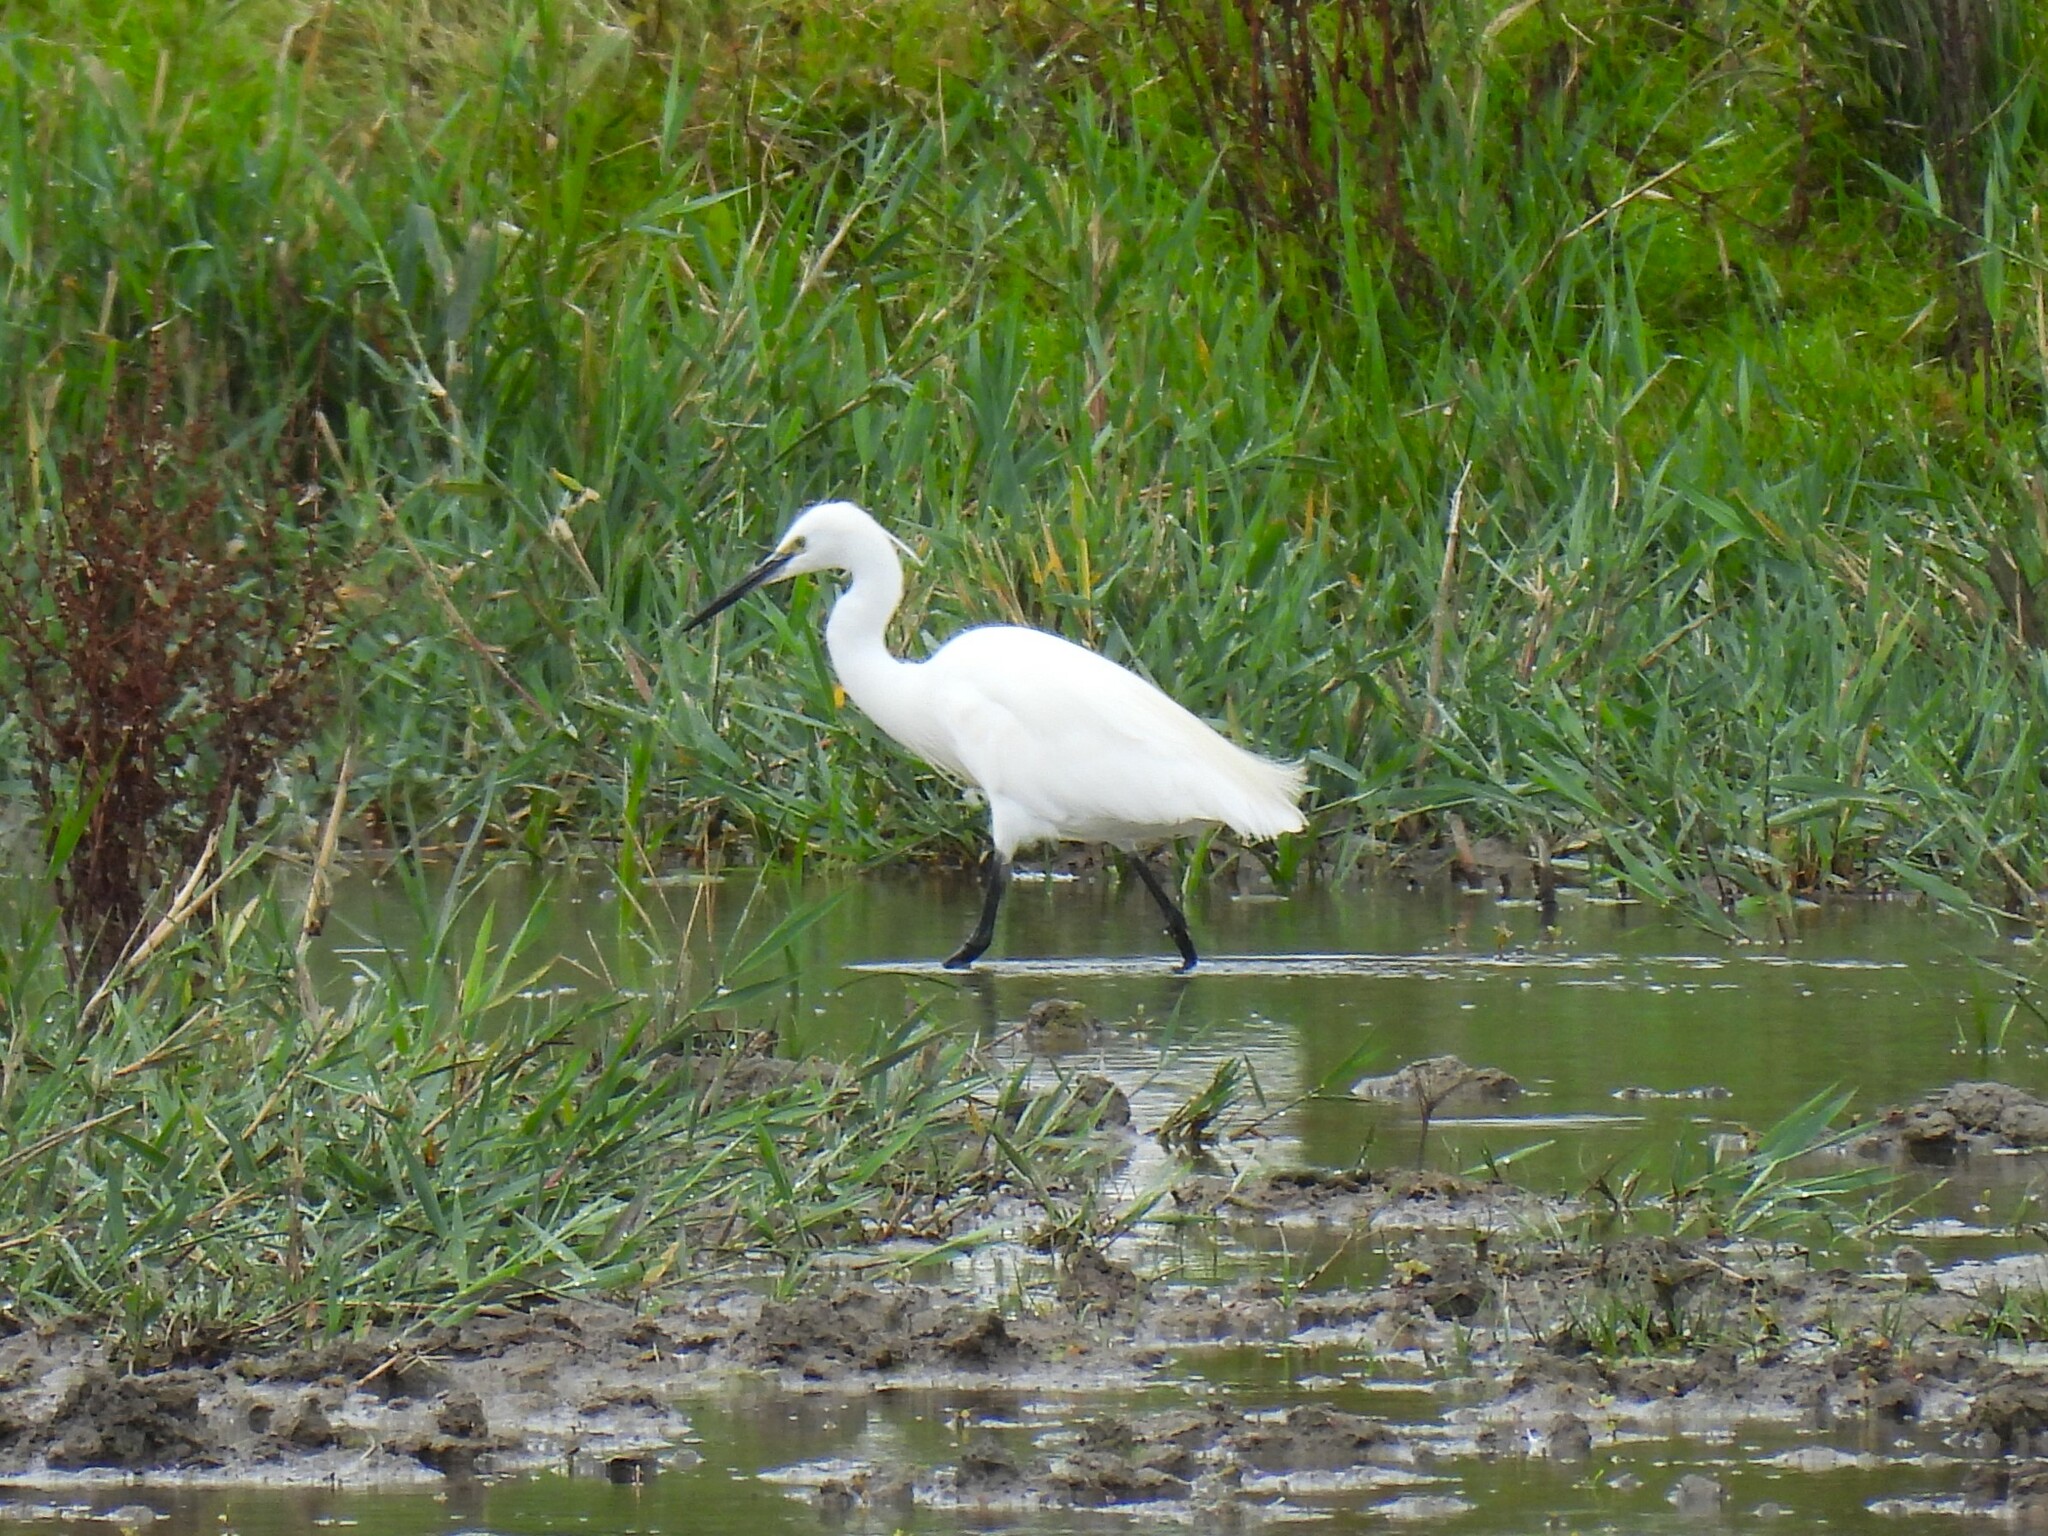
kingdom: Animalia
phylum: Chordata
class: Aves
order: Pelecaniformes
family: Ardeidae
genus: Egretta
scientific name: Egretta garzetta
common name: Little egret
